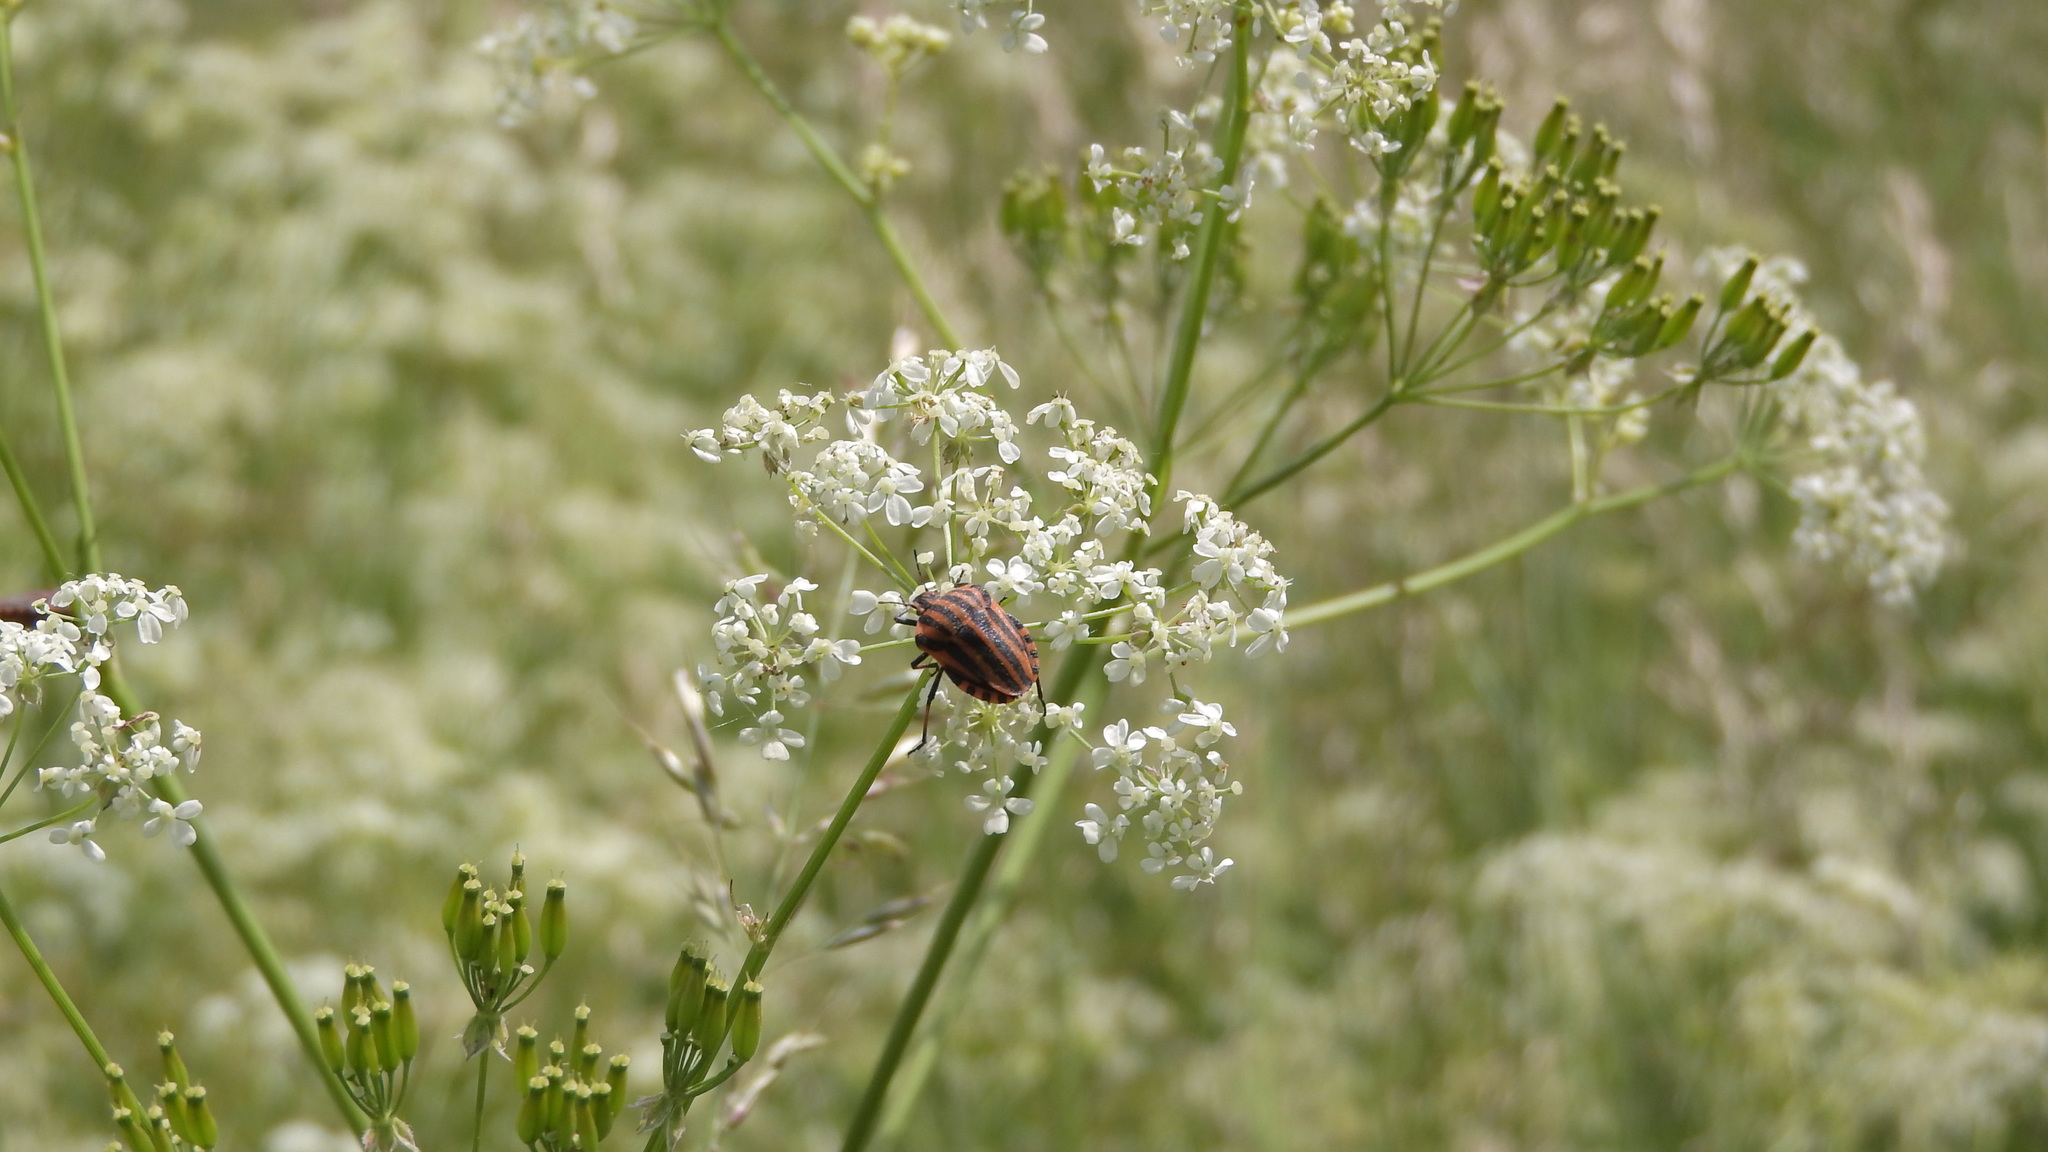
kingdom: Animalia
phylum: Arthropoda
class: Insecta
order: Hemiptera
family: Pentatomidae
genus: Graphosoma
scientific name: Graphosoma italicum
